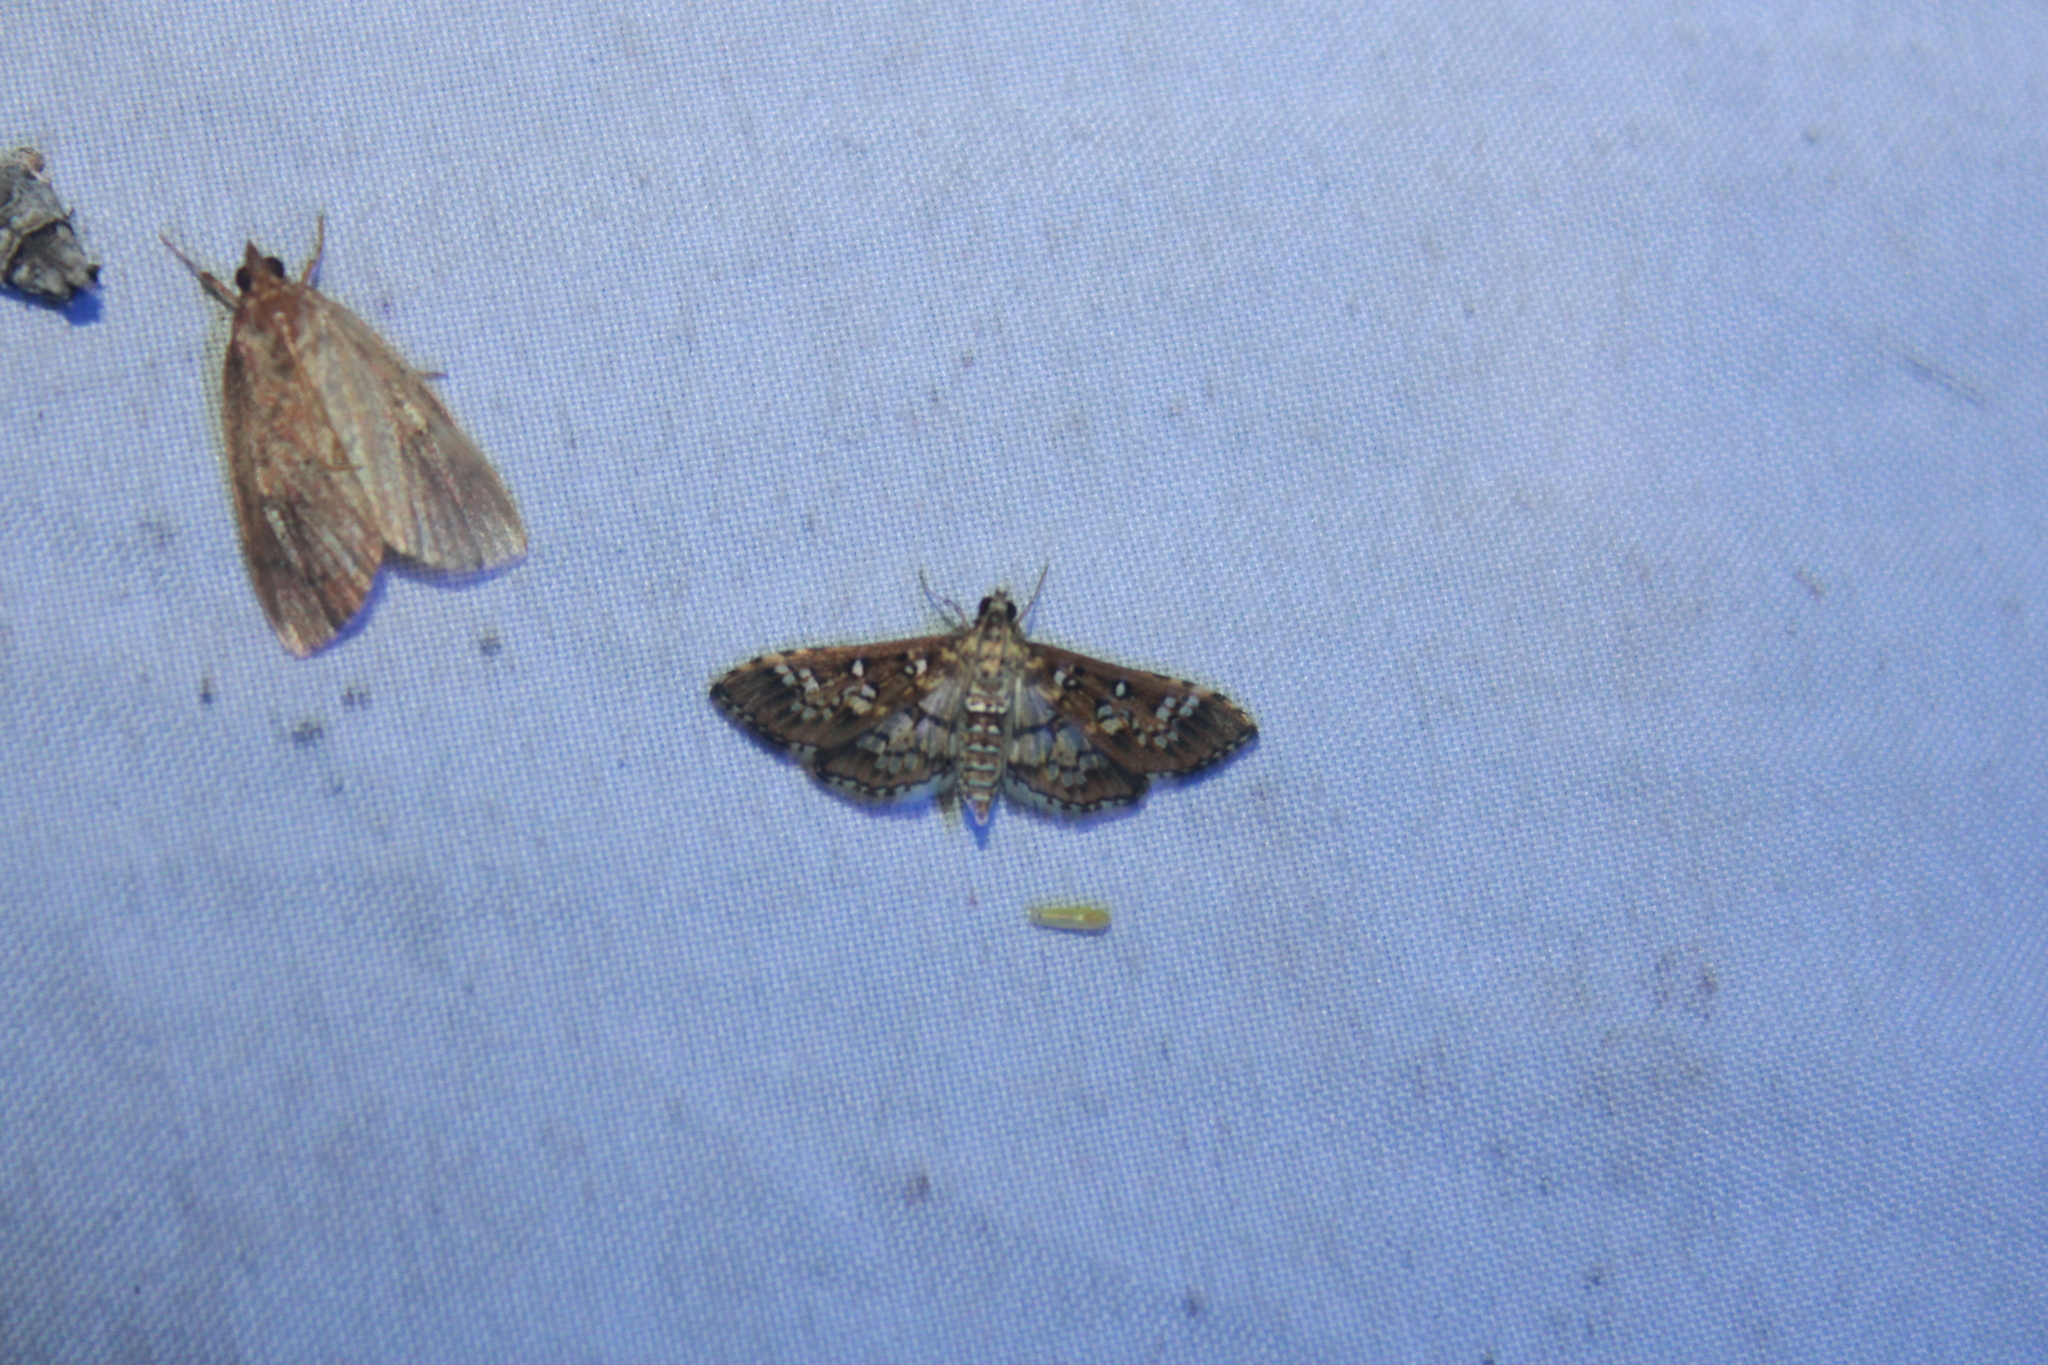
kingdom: Animalia
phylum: Arthropoda
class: Insecta
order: Lepidoptera
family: Crambidae
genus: Samea
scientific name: Samea multiplicalis
